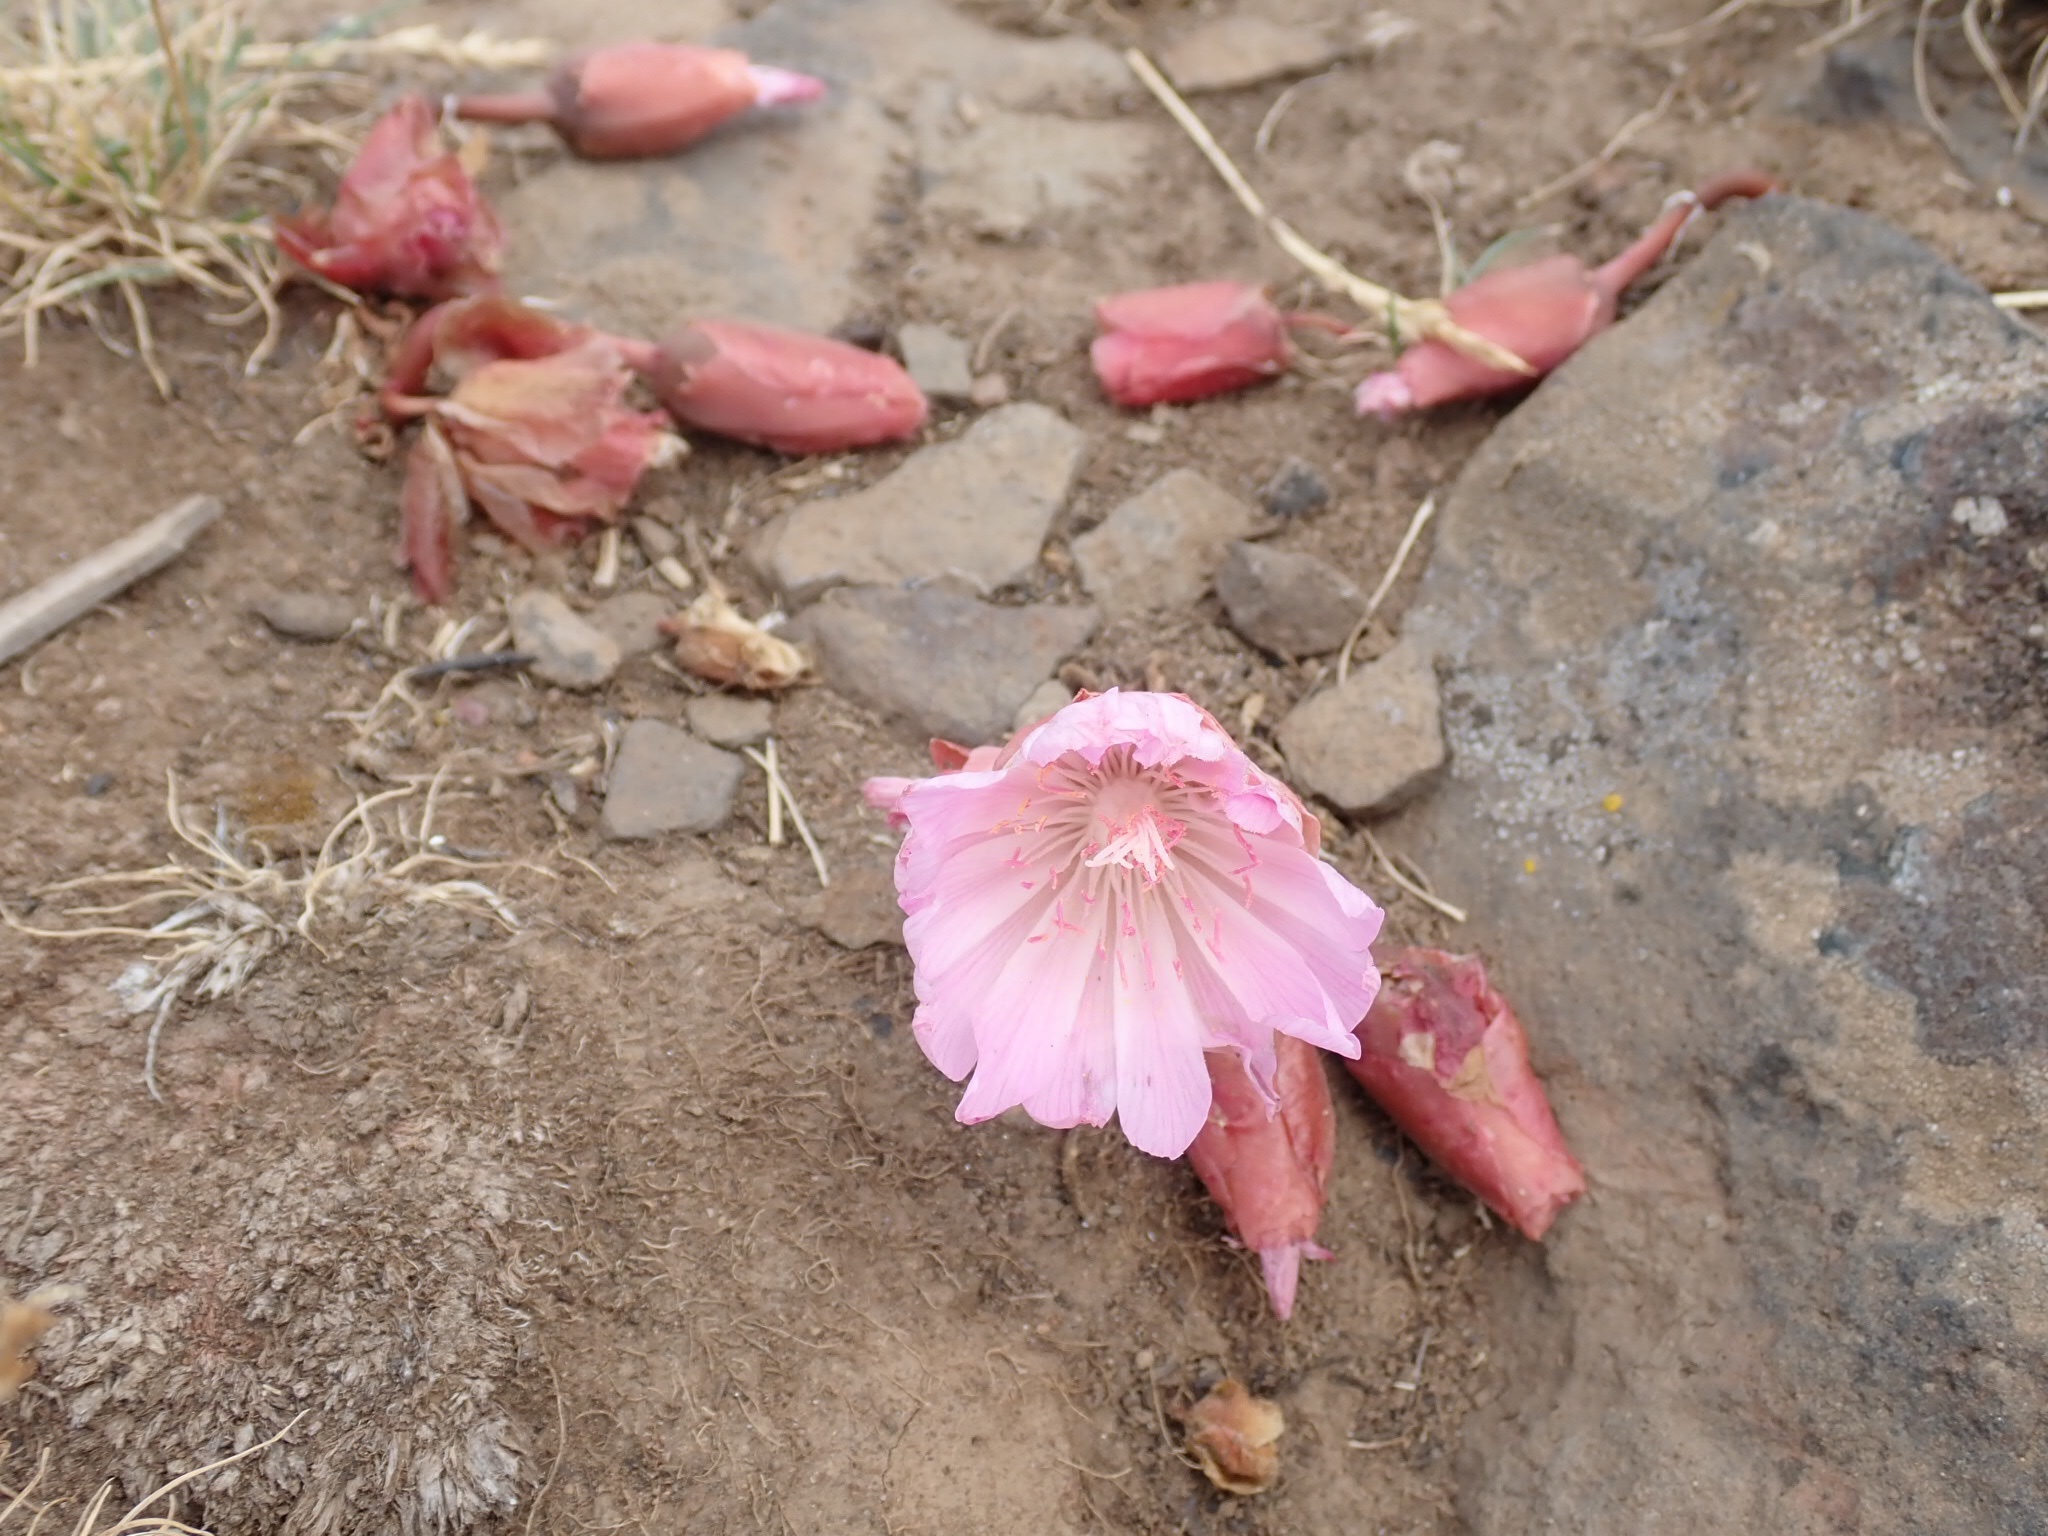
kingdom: Plantae
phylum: Tracheophyta
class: Magnoliopsida
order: Caryophyllales
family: Montiaceae
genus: Lewisia
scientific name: Lewisia rediviva
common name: Bitter-root
